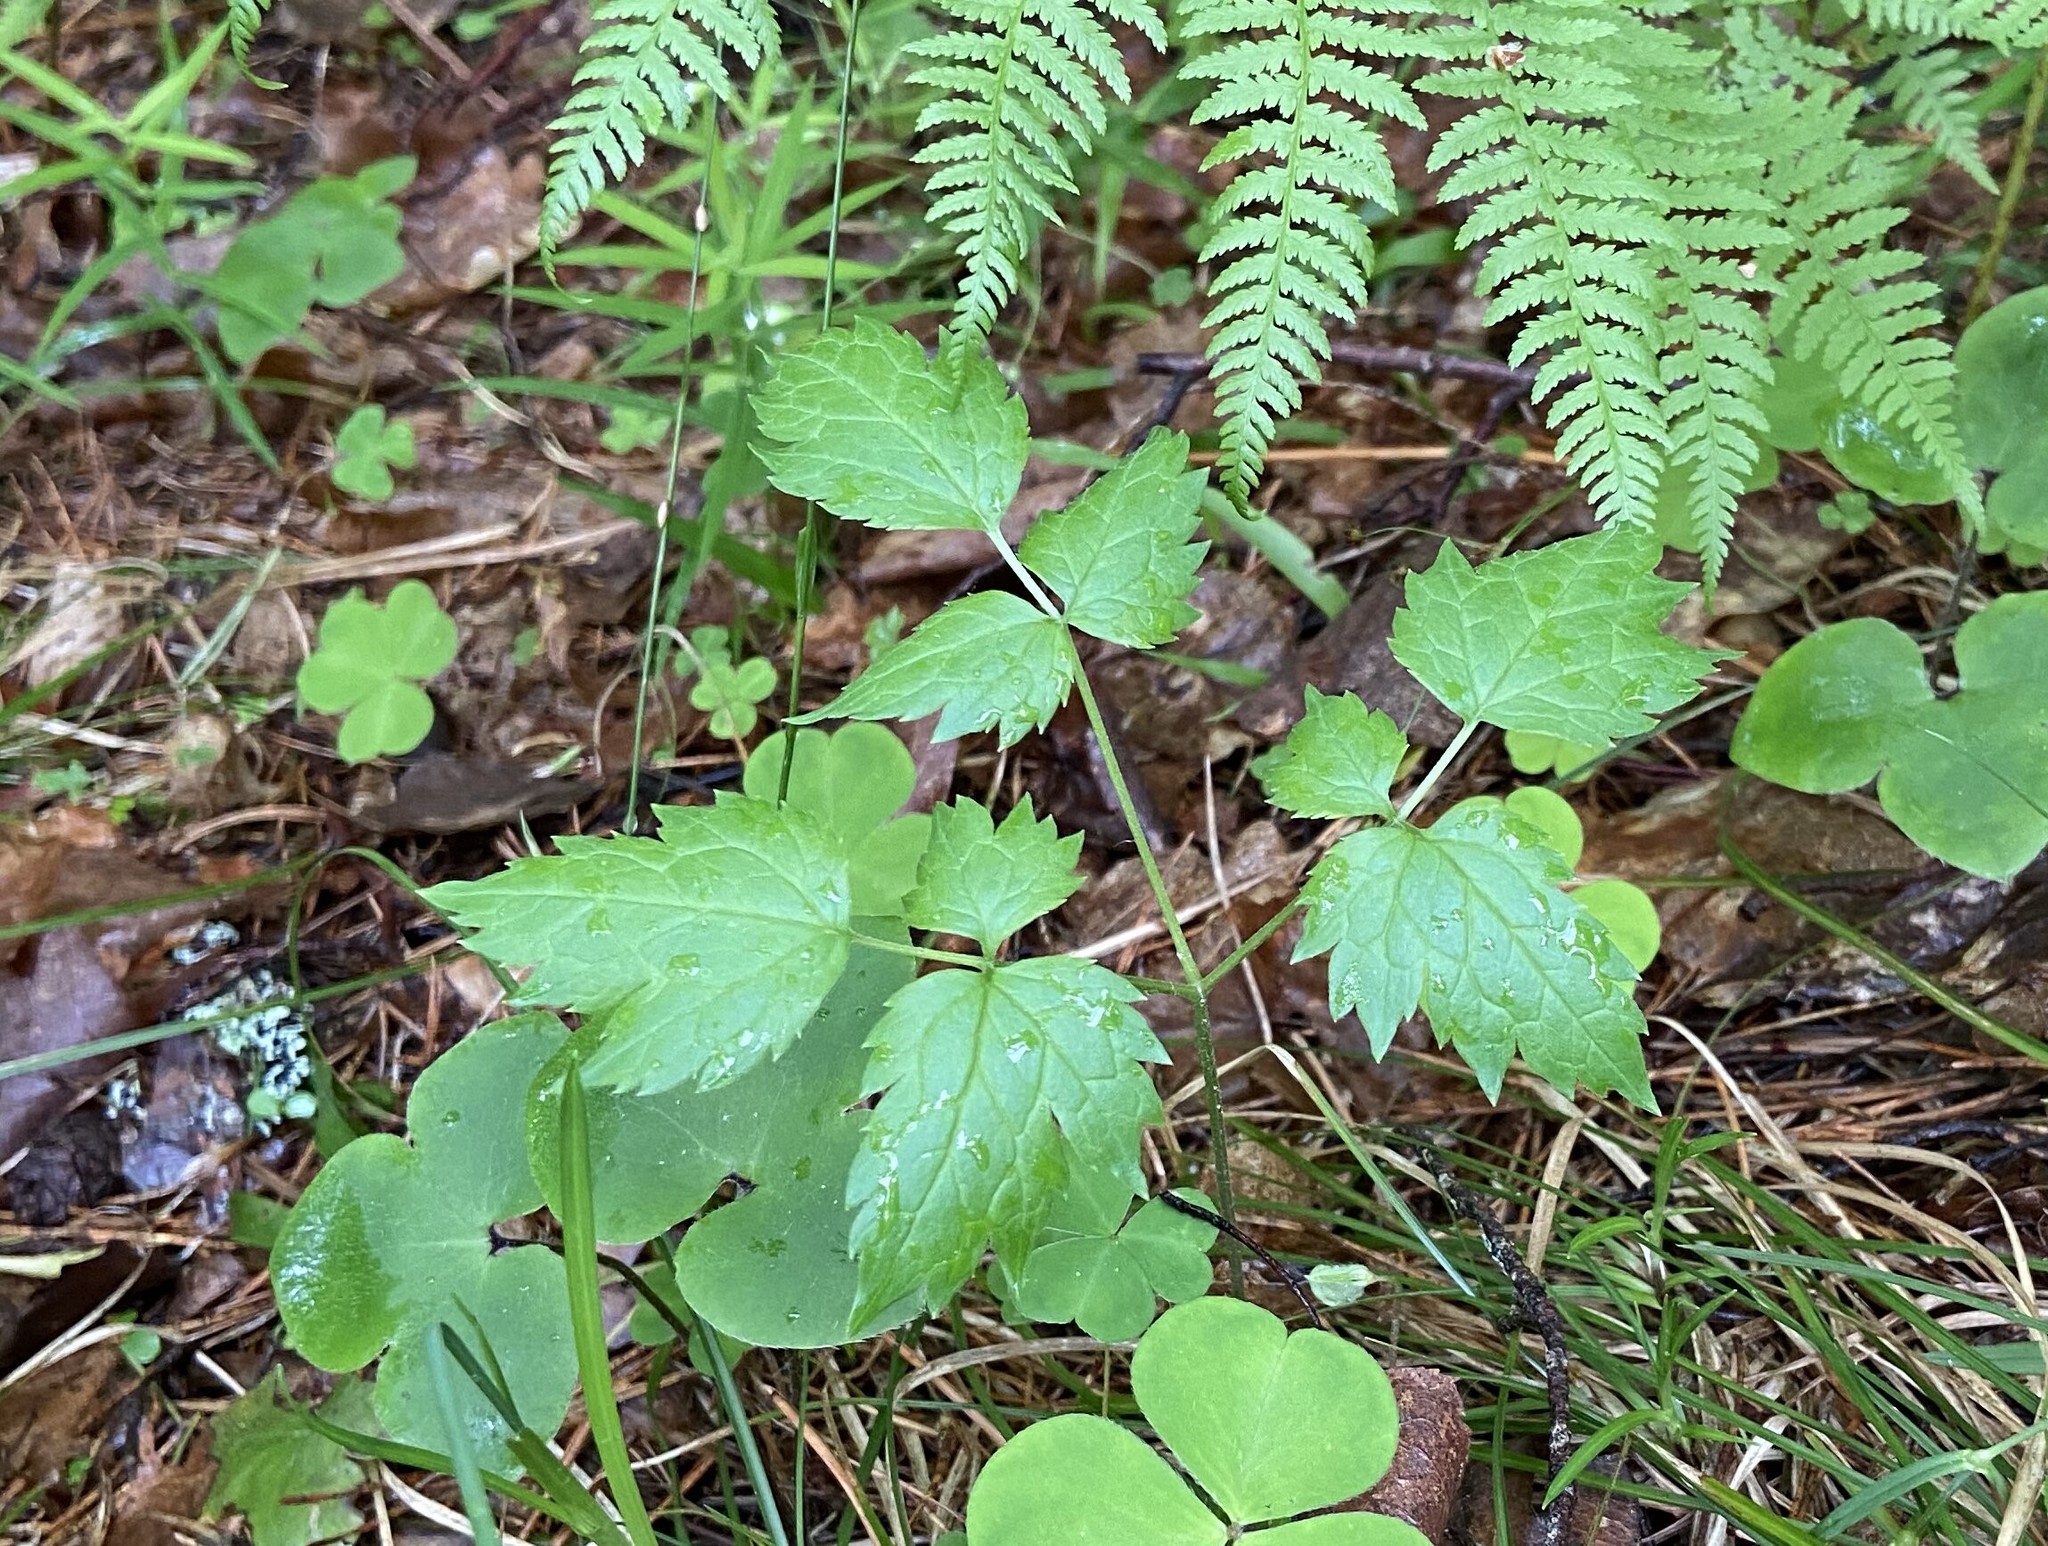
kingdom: Plantae
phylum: Tracheophyta
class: Magnoliopsida
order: Ranunculales
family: Ranunculaceae
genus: Actaea
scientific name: Actaea spicata
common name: Baneberry
